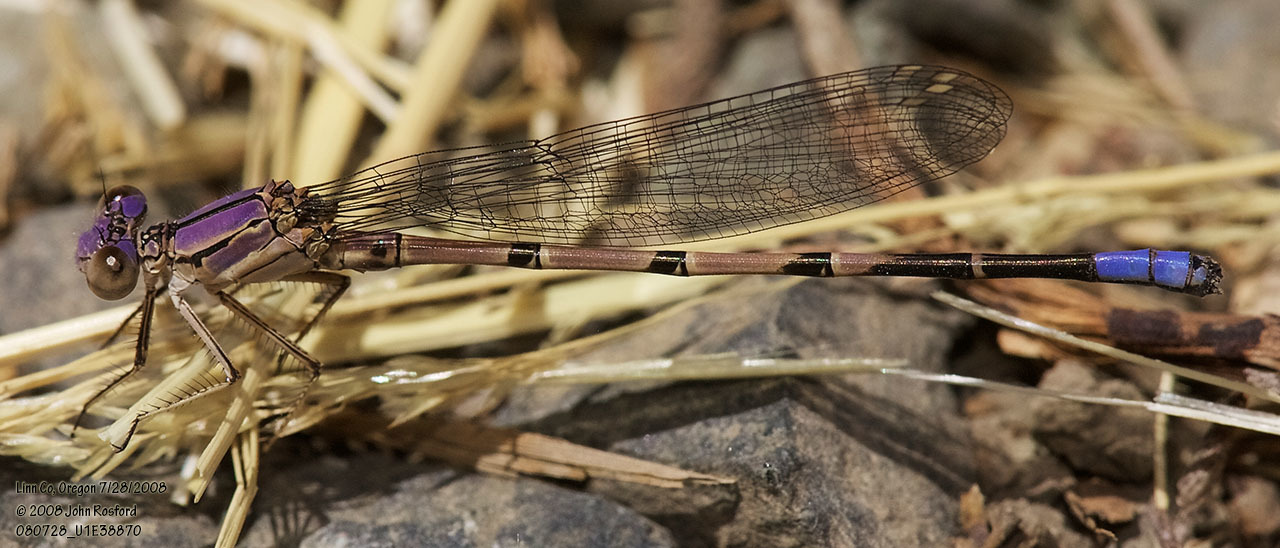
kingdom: Animalia
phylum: Arthropoda
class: Insecta
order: Odonata
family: Coenagrionidae
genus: Argia
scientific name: Argia emma
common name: Emma's dancer
